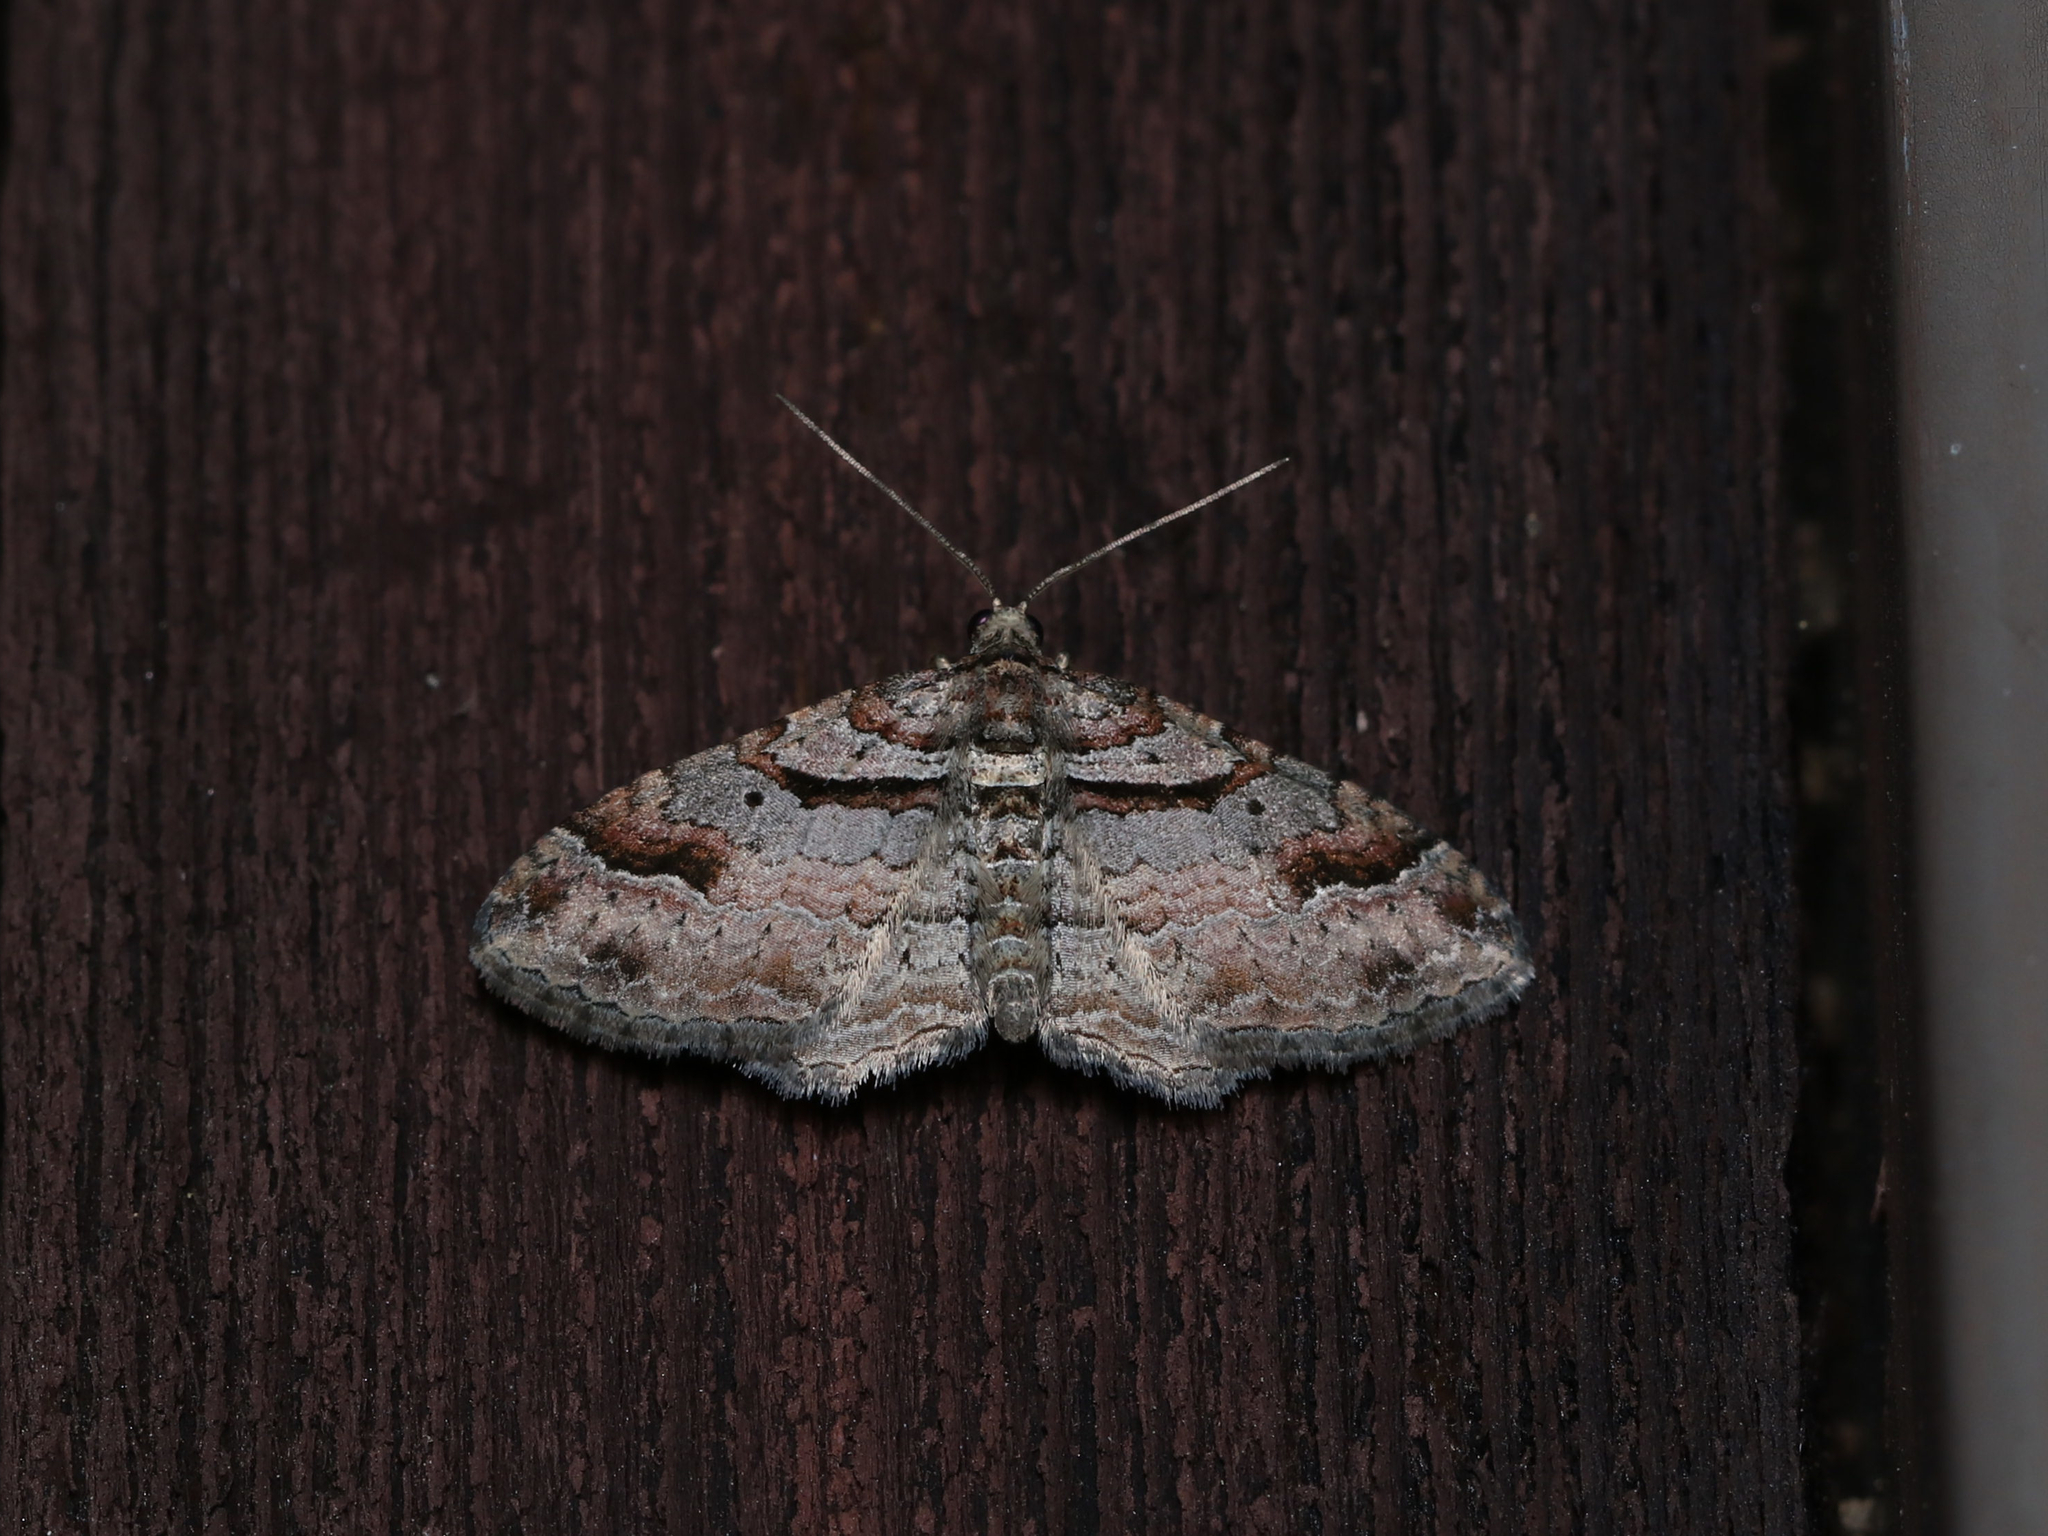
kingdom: Animalia
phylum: Arthropoda
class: Insecta
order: Lepidoptera
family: Geometridae
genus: Costaconvexa
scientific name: Costaconvexa centrostrigaria
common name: Bent-line carpet
